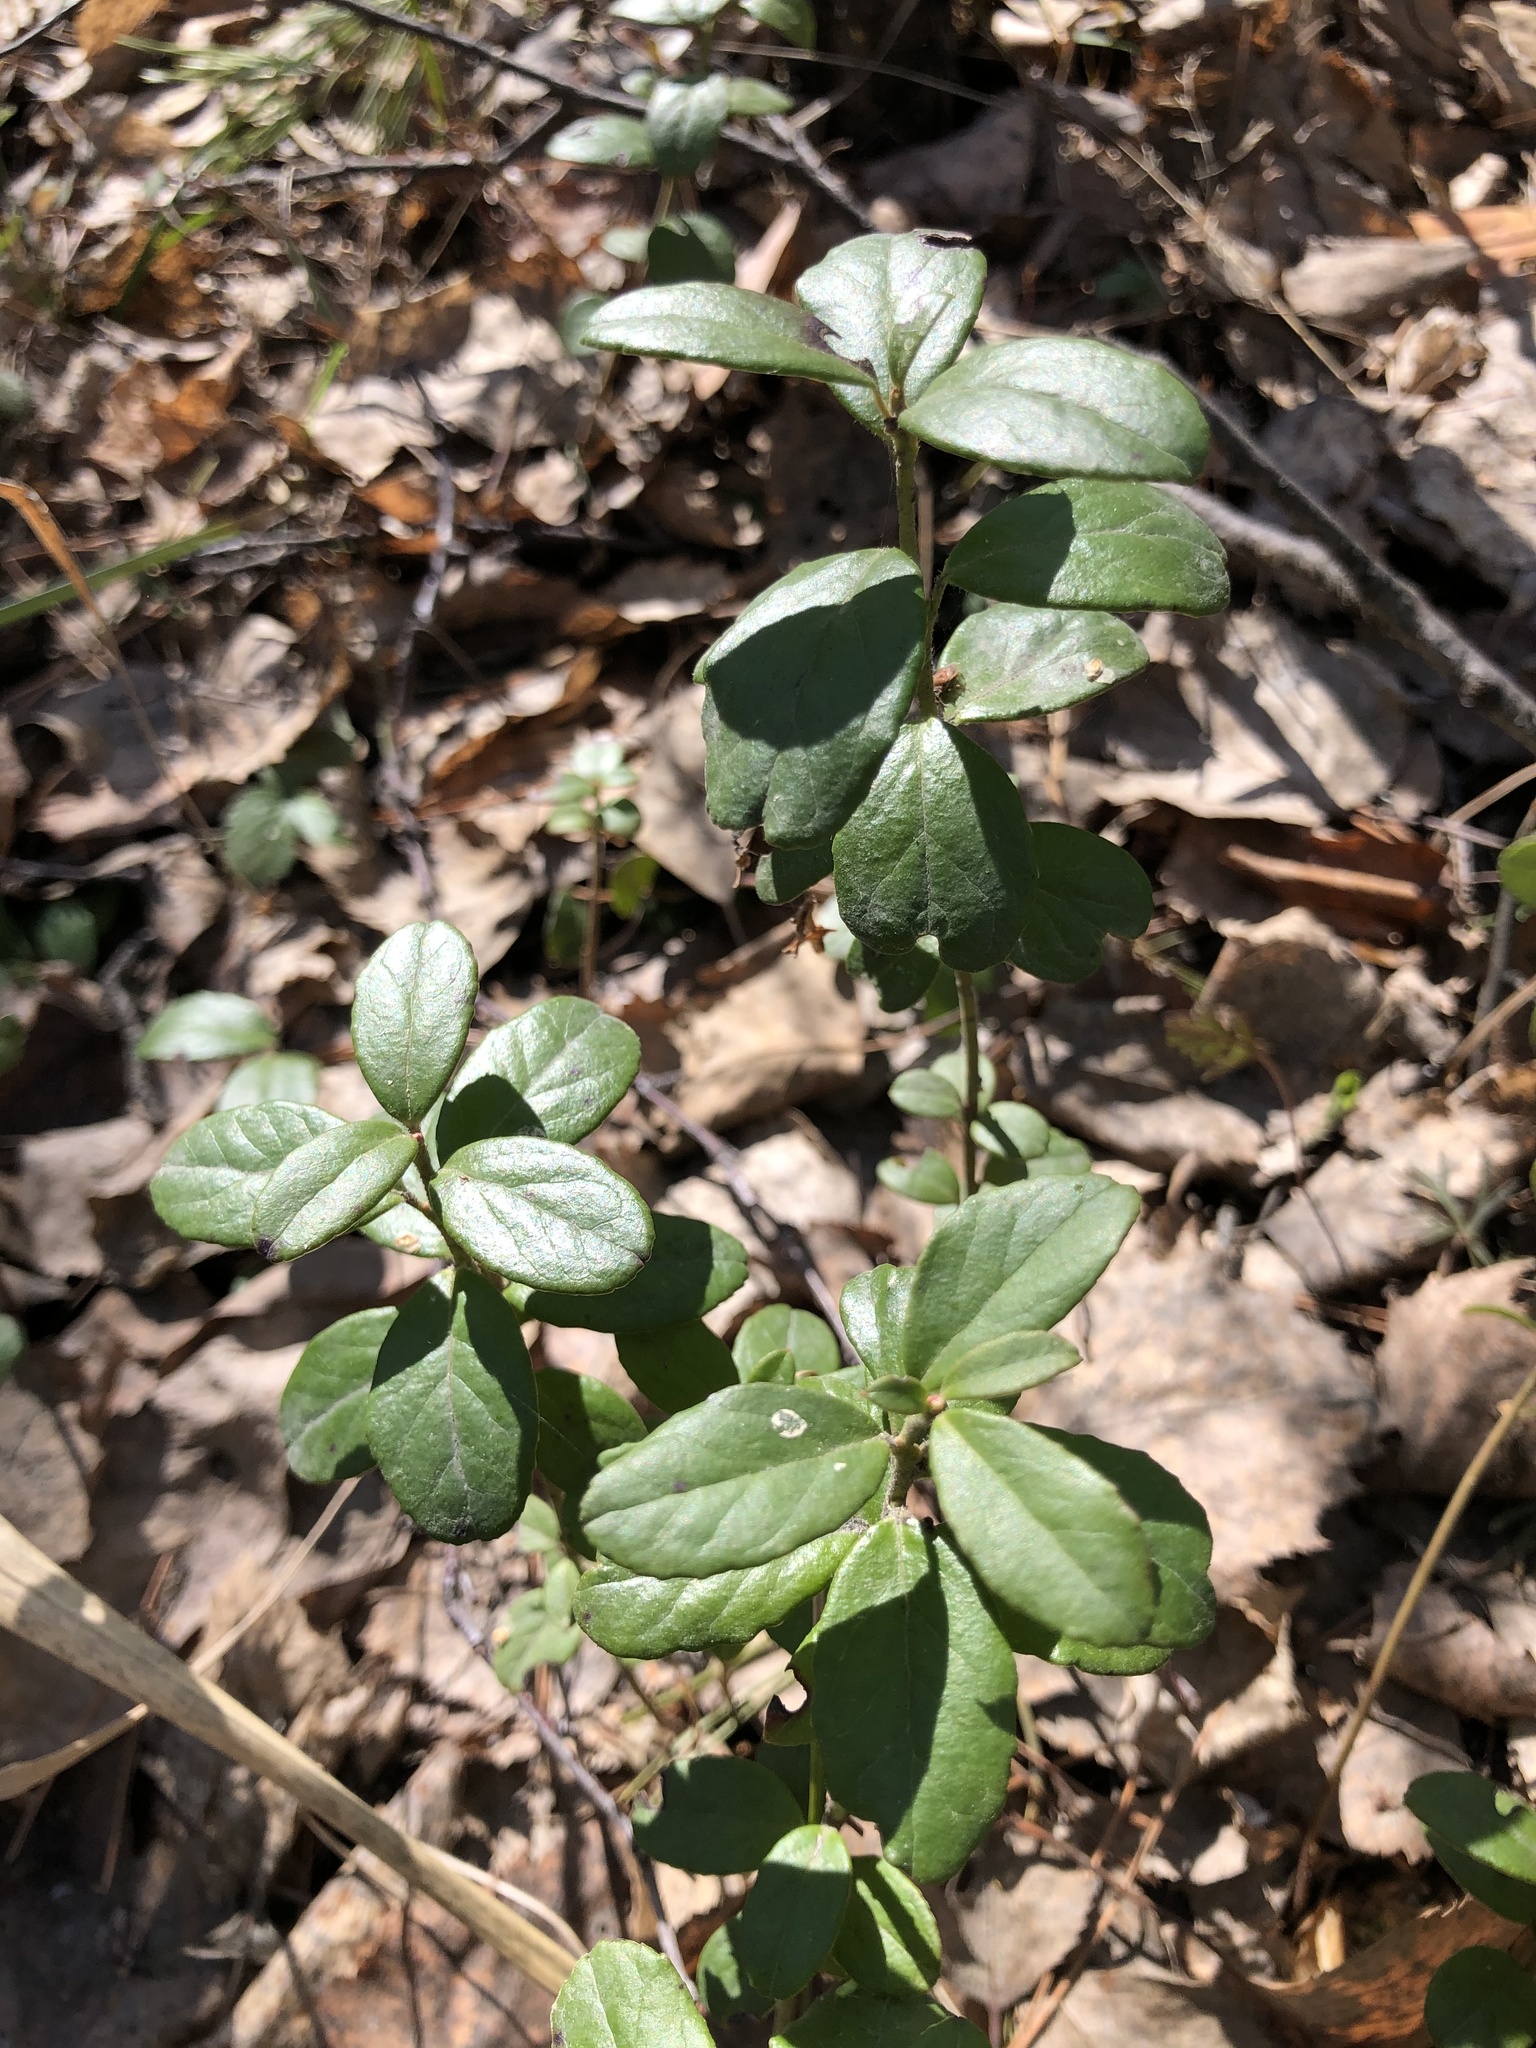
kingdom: Plantae
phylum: Tracheophyta
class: Magnoliopsida
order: Ericales
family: Ericaceae
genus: Vaccinium
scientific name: Vaccinium vitis-idaea
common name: Cowberry
